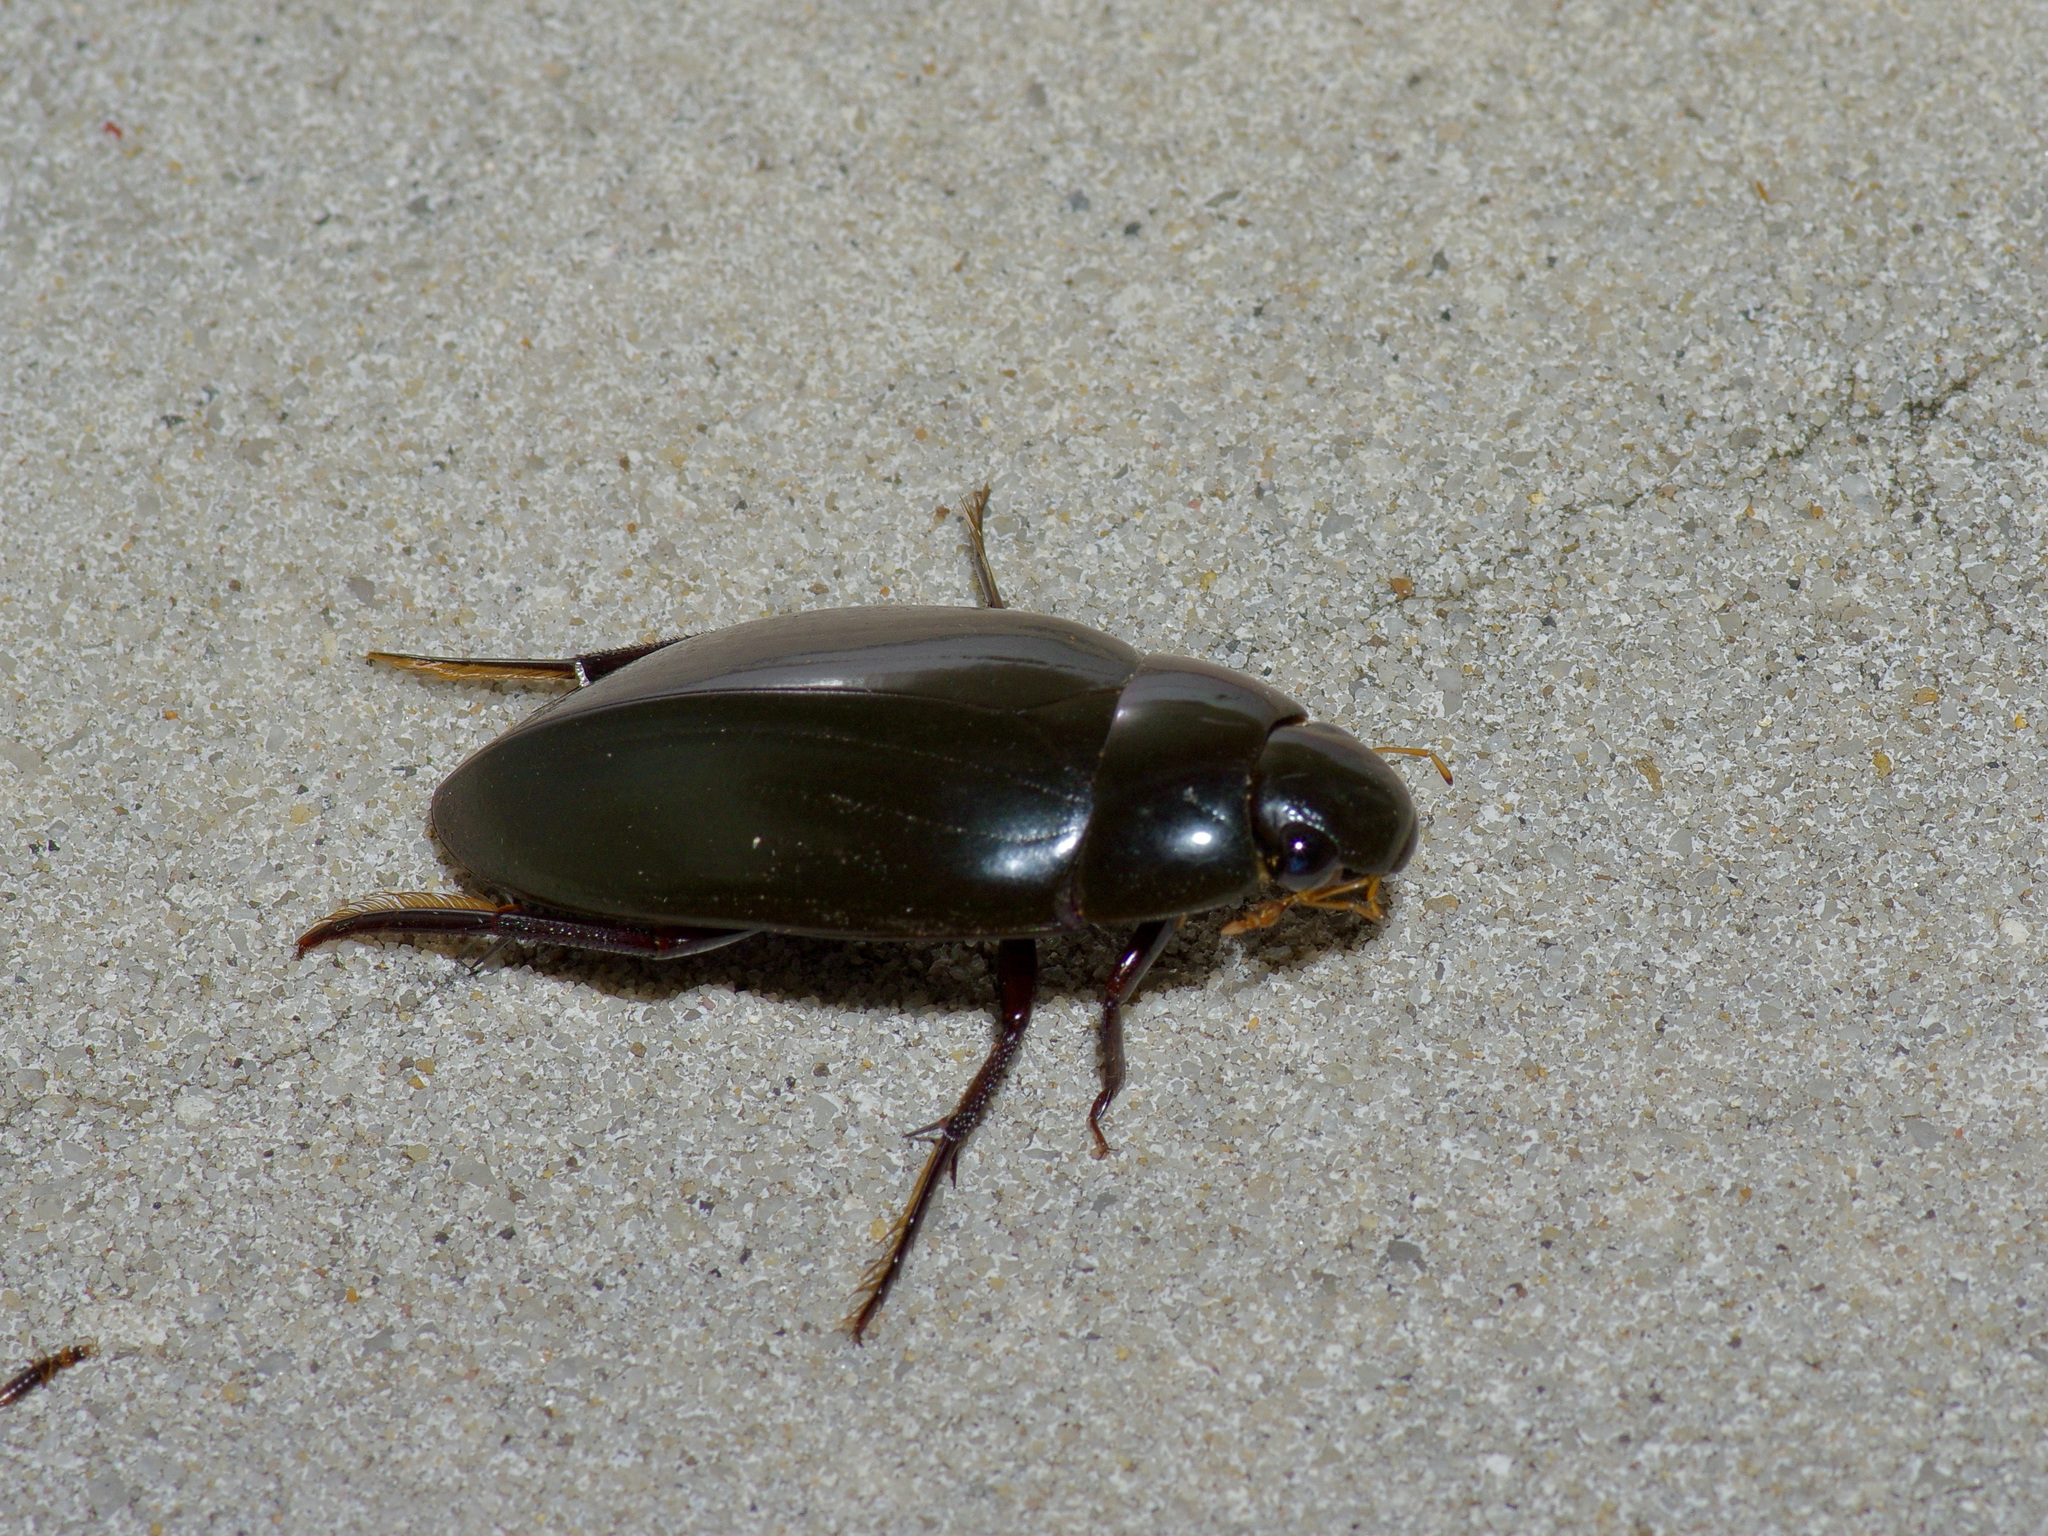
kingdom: Animalia
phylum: Arthropoda
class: Insecta
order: Coleoptera
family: Hydrophilidae
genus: Hydrophilus
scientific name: Hydrophilus triangularis
